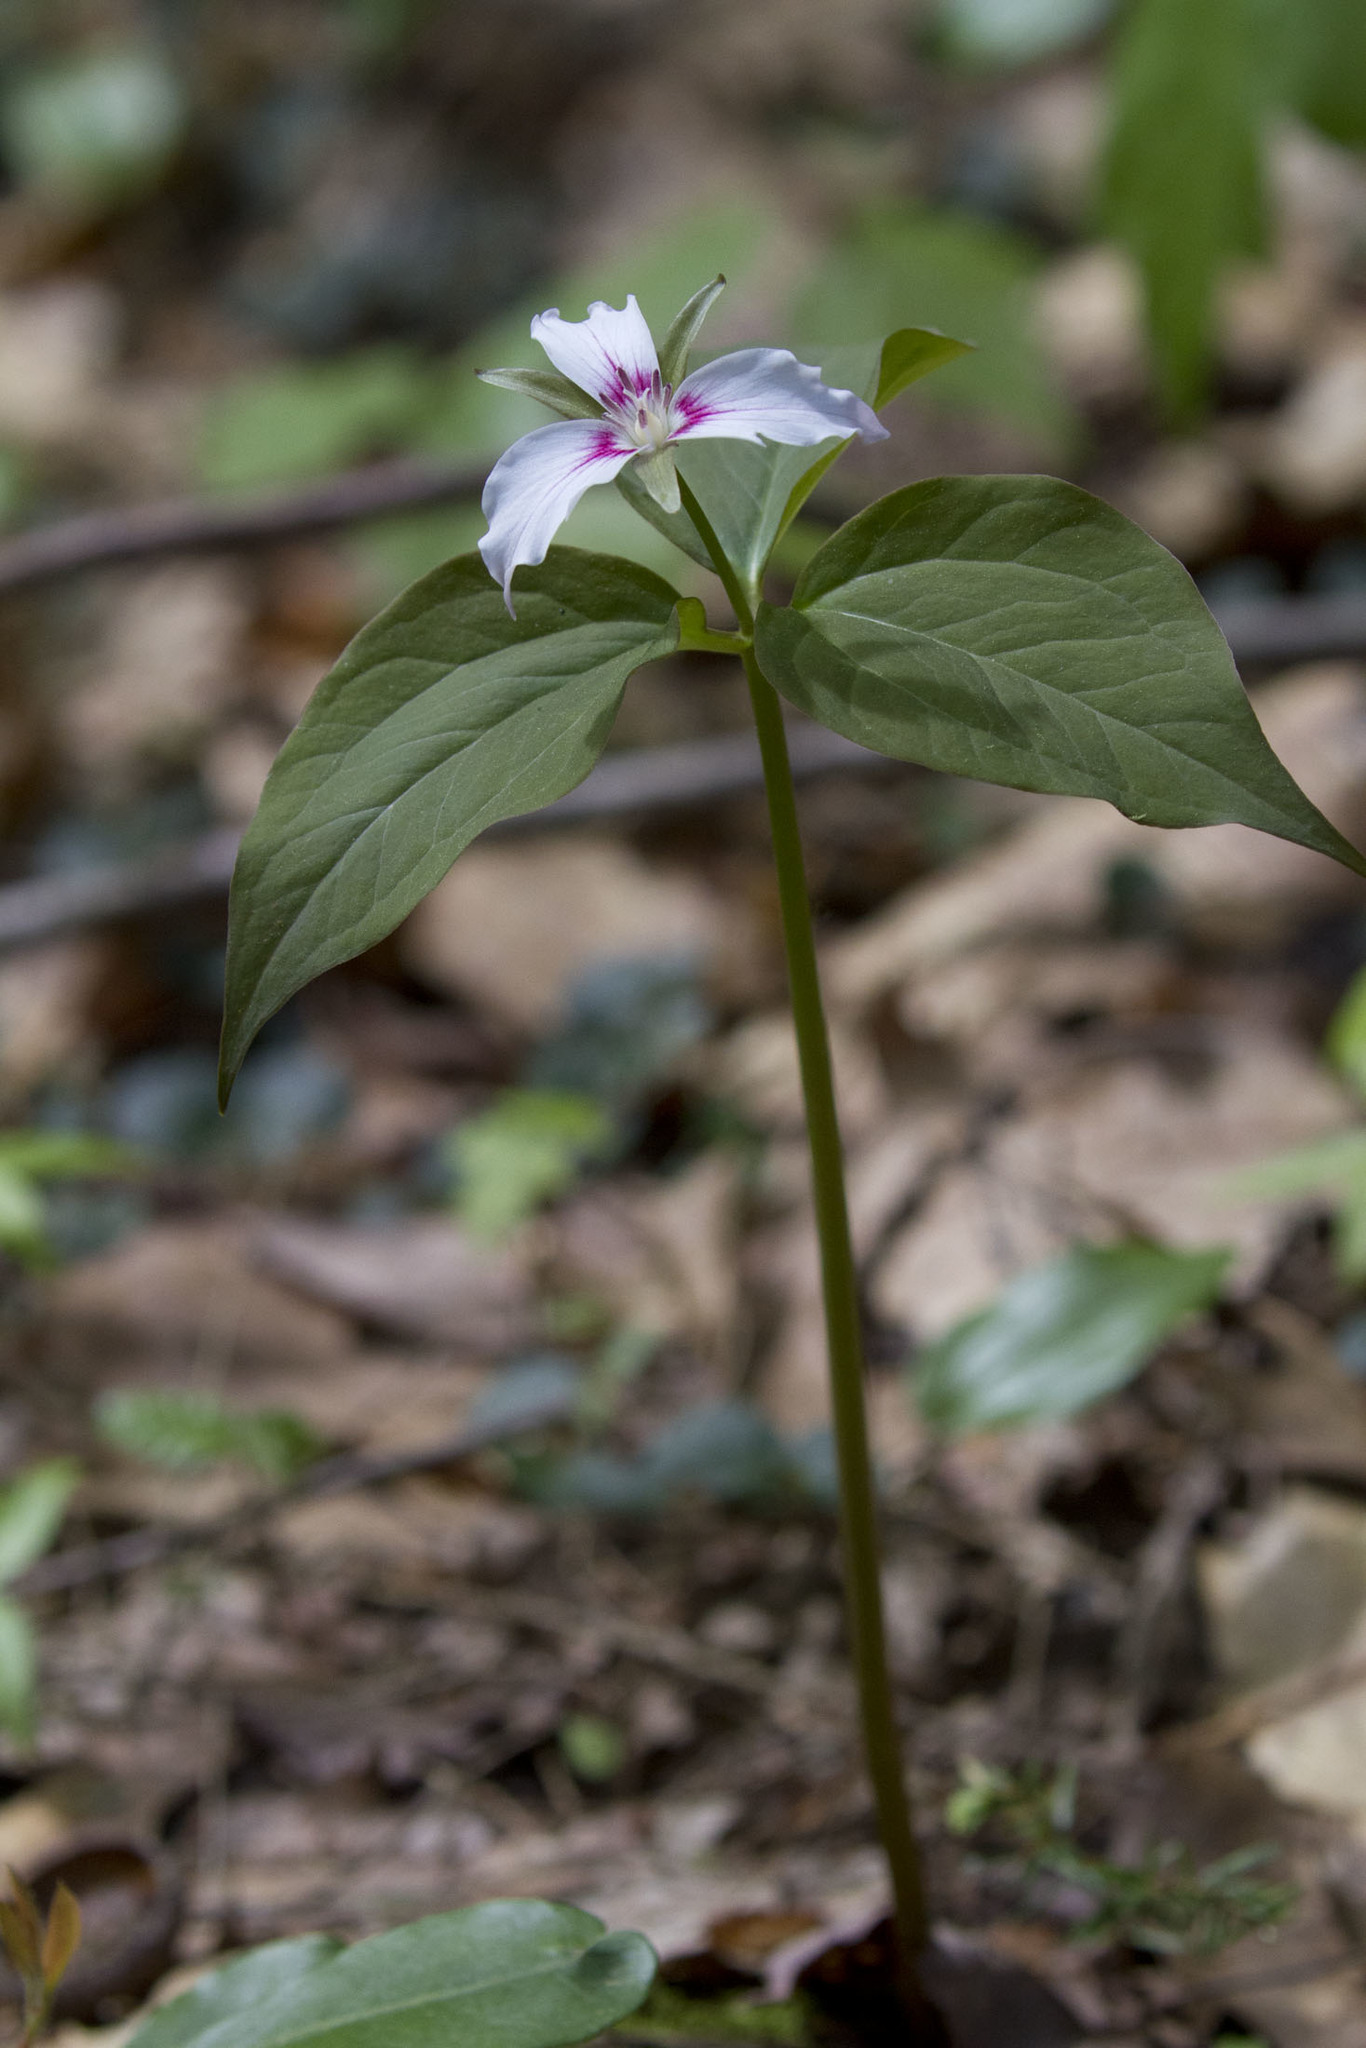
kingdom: Plantae
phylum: Tracheophyta
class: Liliopsida
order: Liliales
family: Melanthiaceae
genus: Trillium
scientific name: Trillium undulatum
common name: Paint trillium
